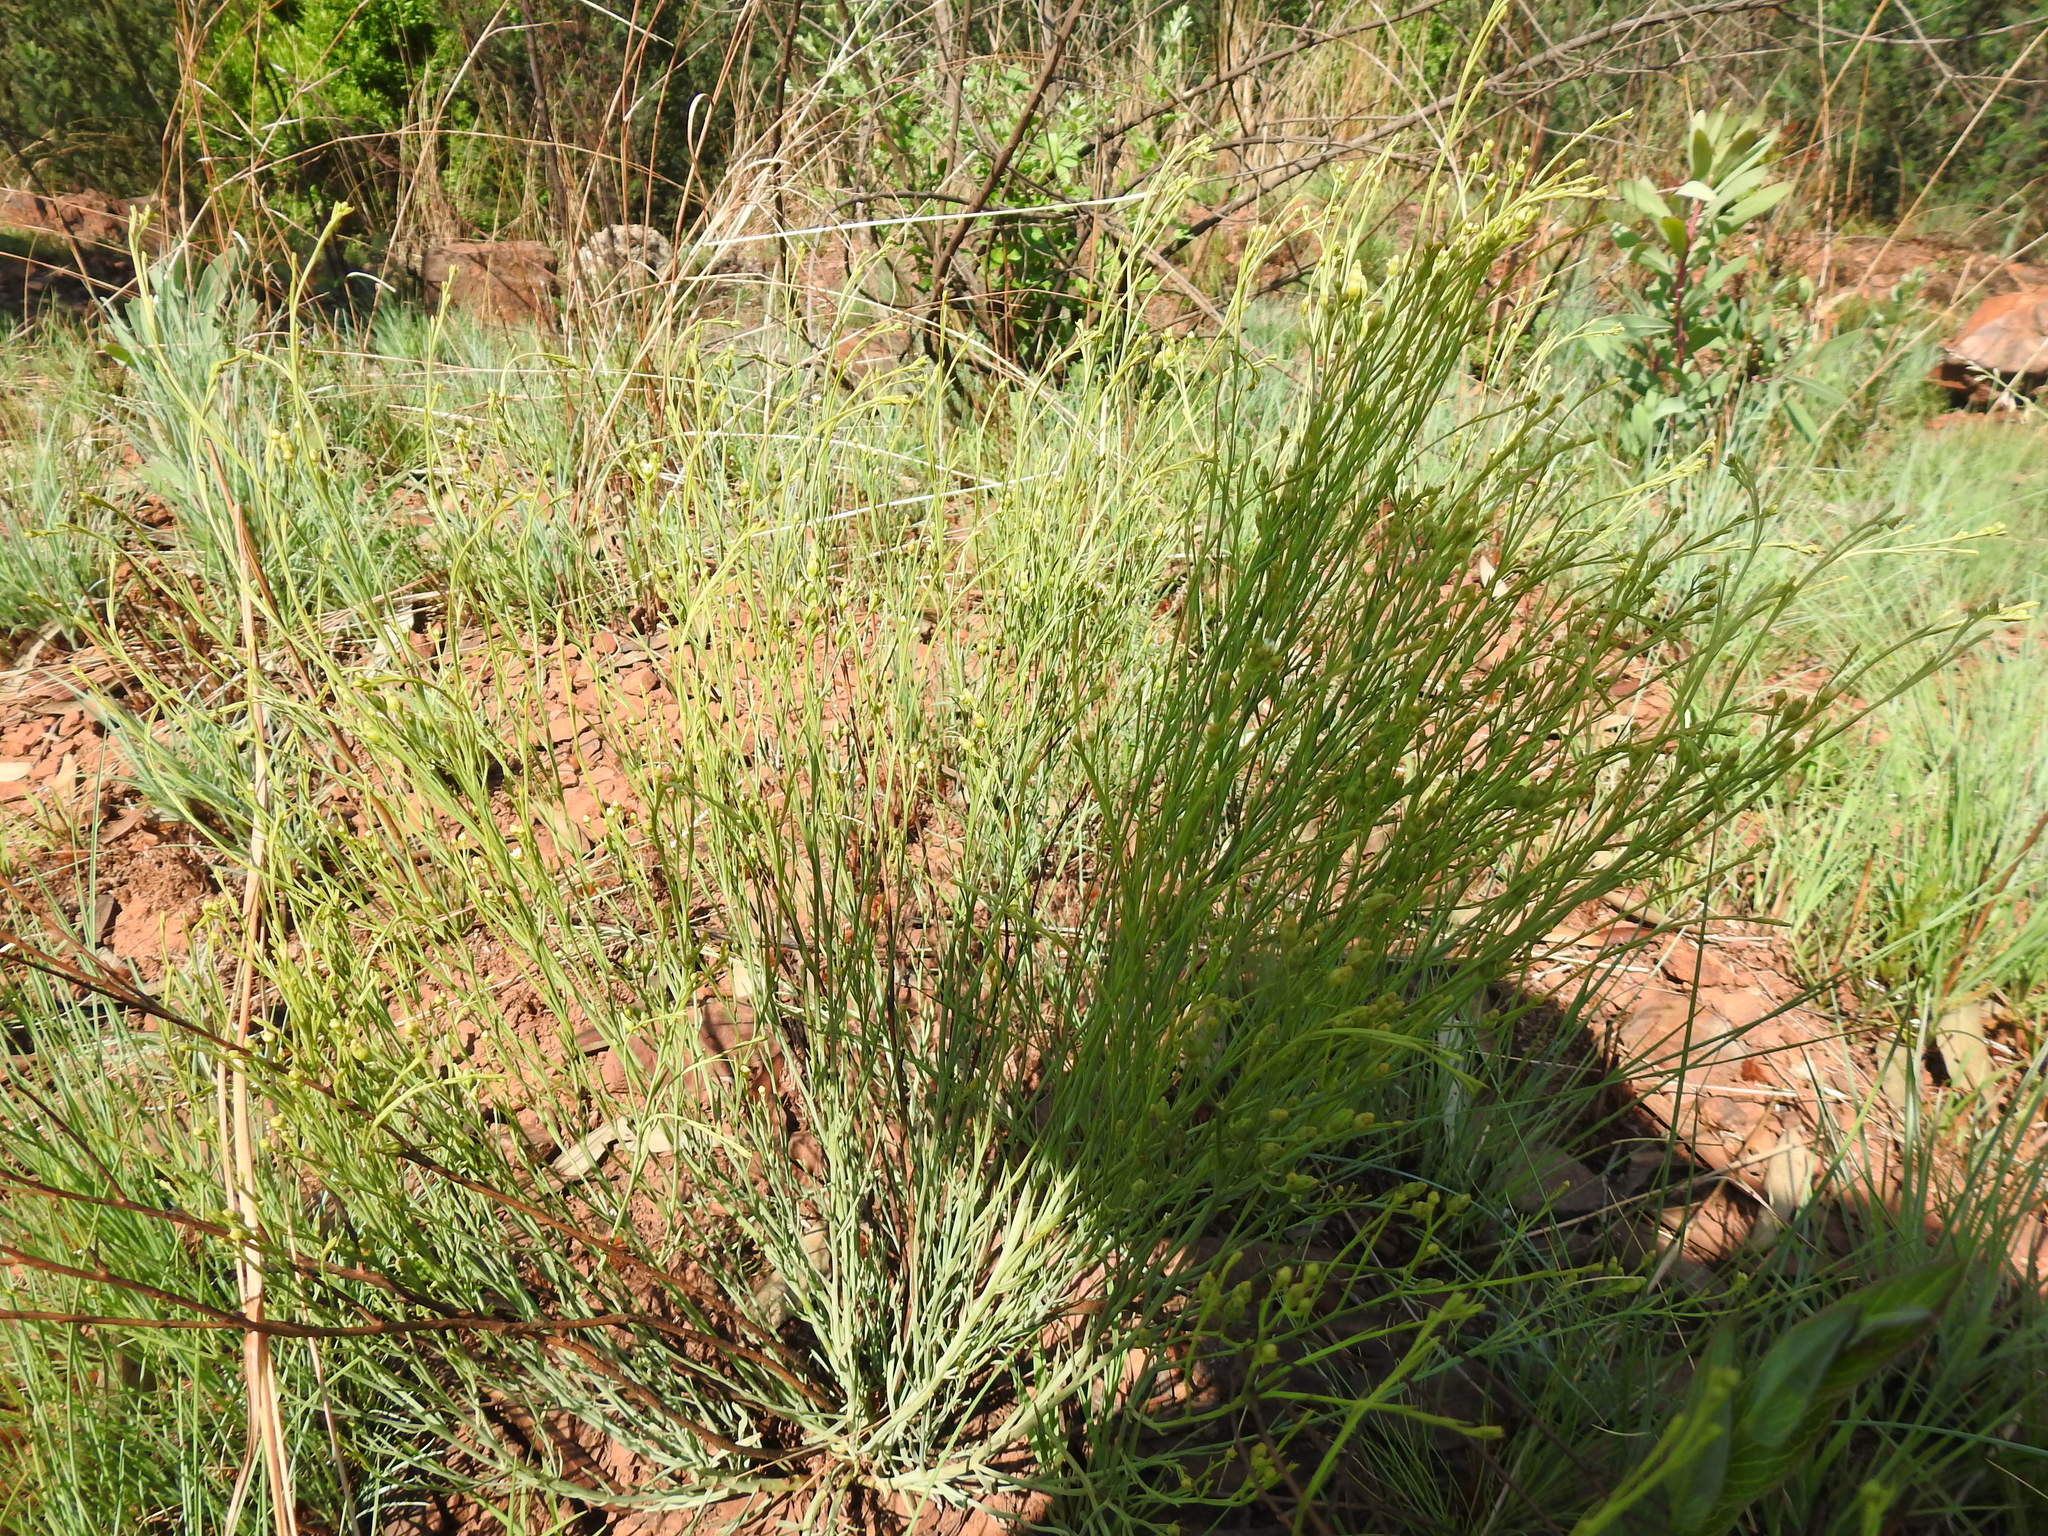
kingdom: Plantae
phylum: Tracheophyta
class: Magnoliopsida
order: Santalales
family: Thesiaceae
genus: Thesium
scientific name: Thesium utile
